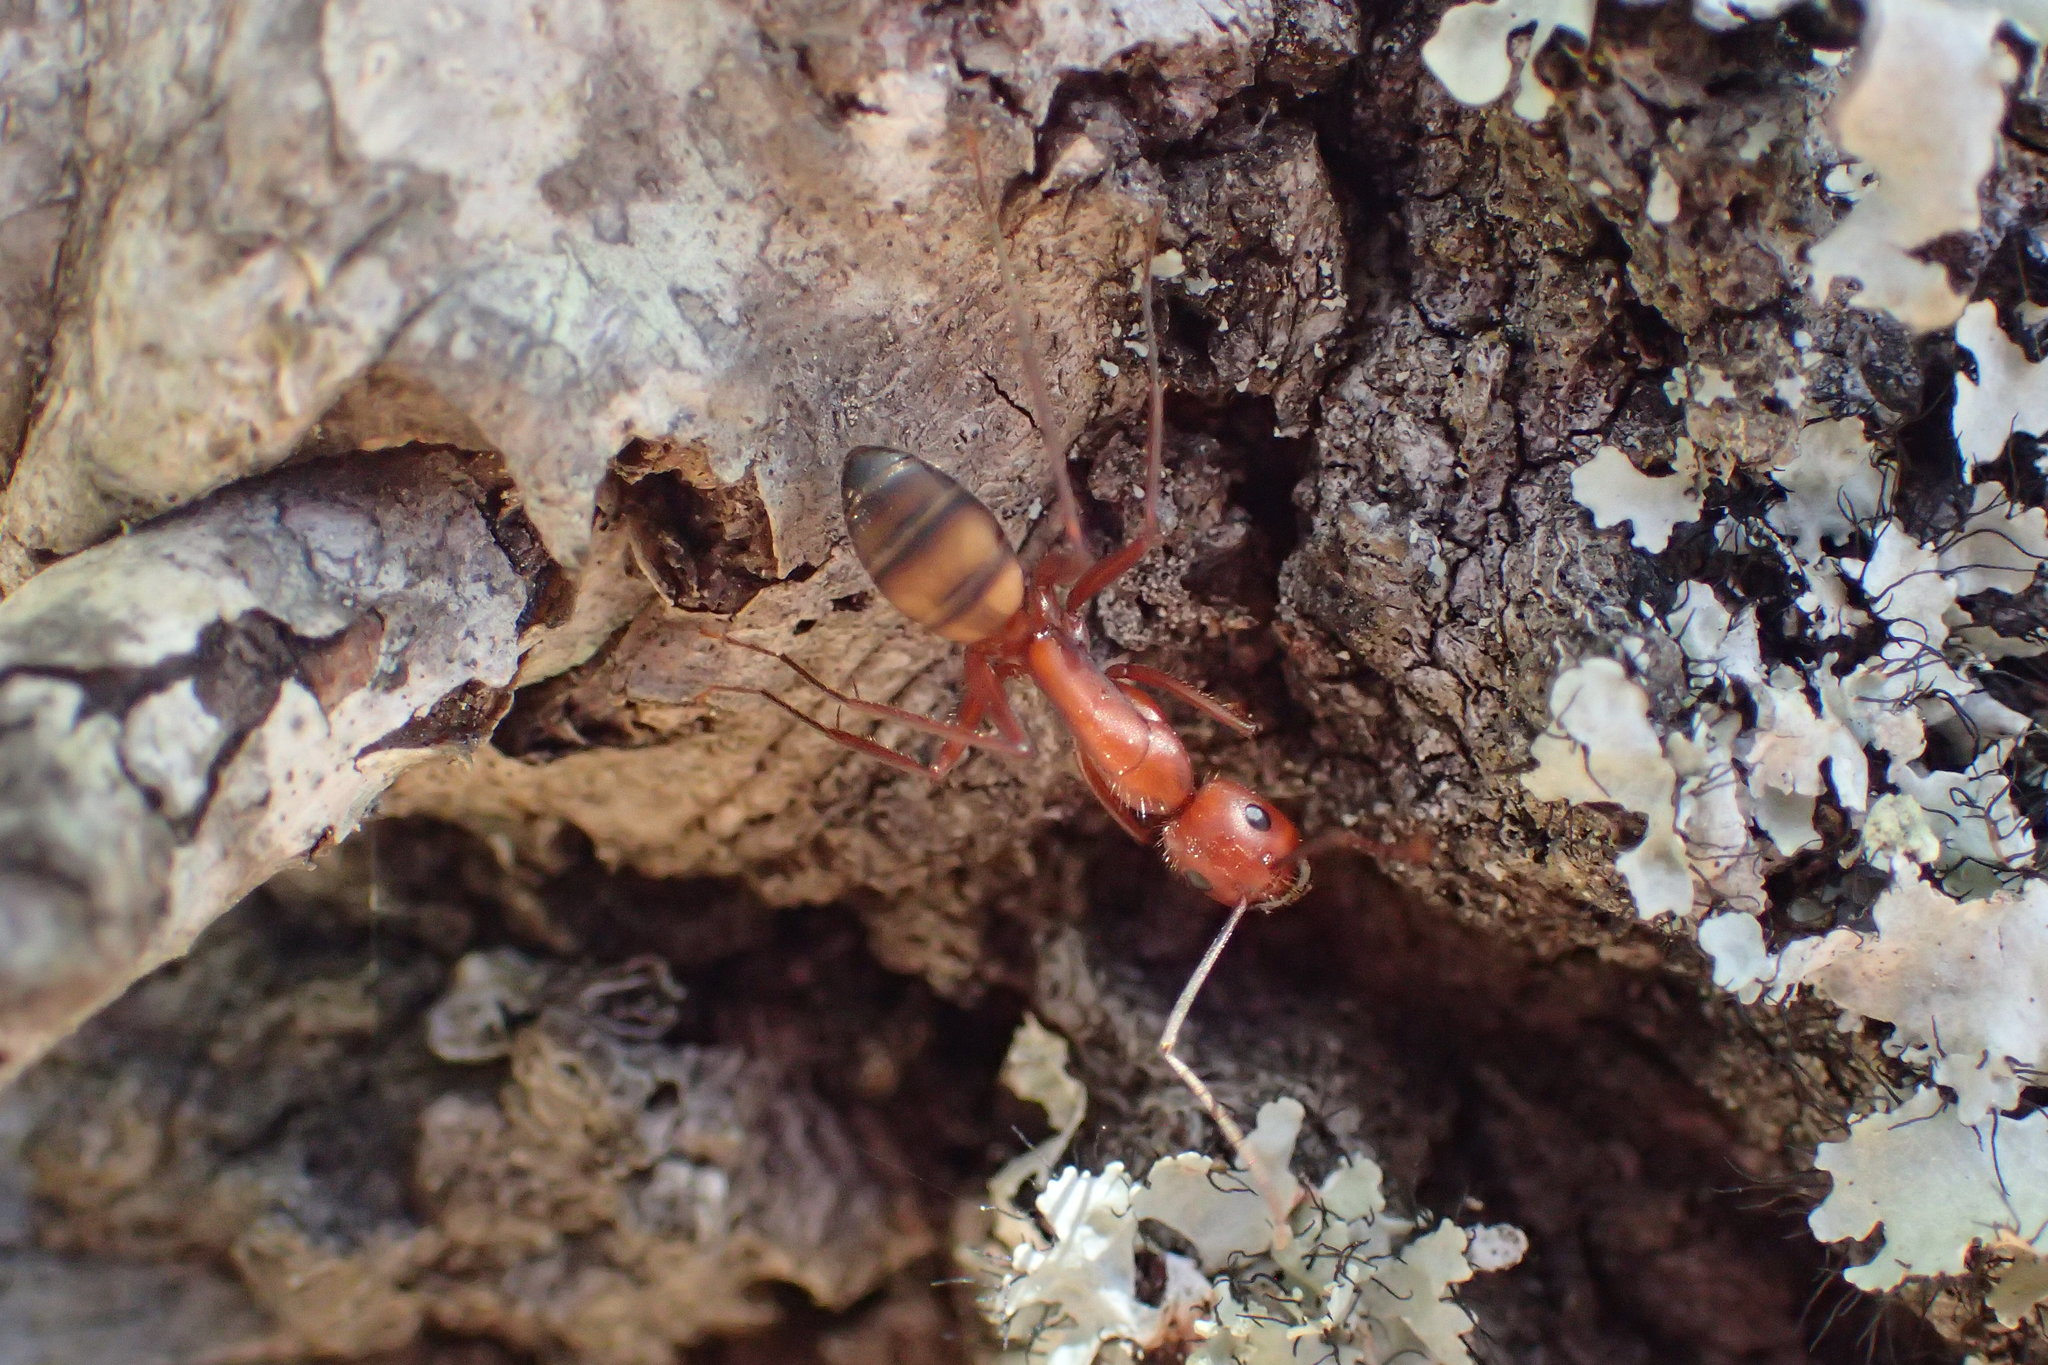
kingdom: Animalia
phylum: Arthropoda
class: Insecta
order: Hymenoptera
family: Formicidae
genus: Camponotus
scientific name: Camponotus socius
